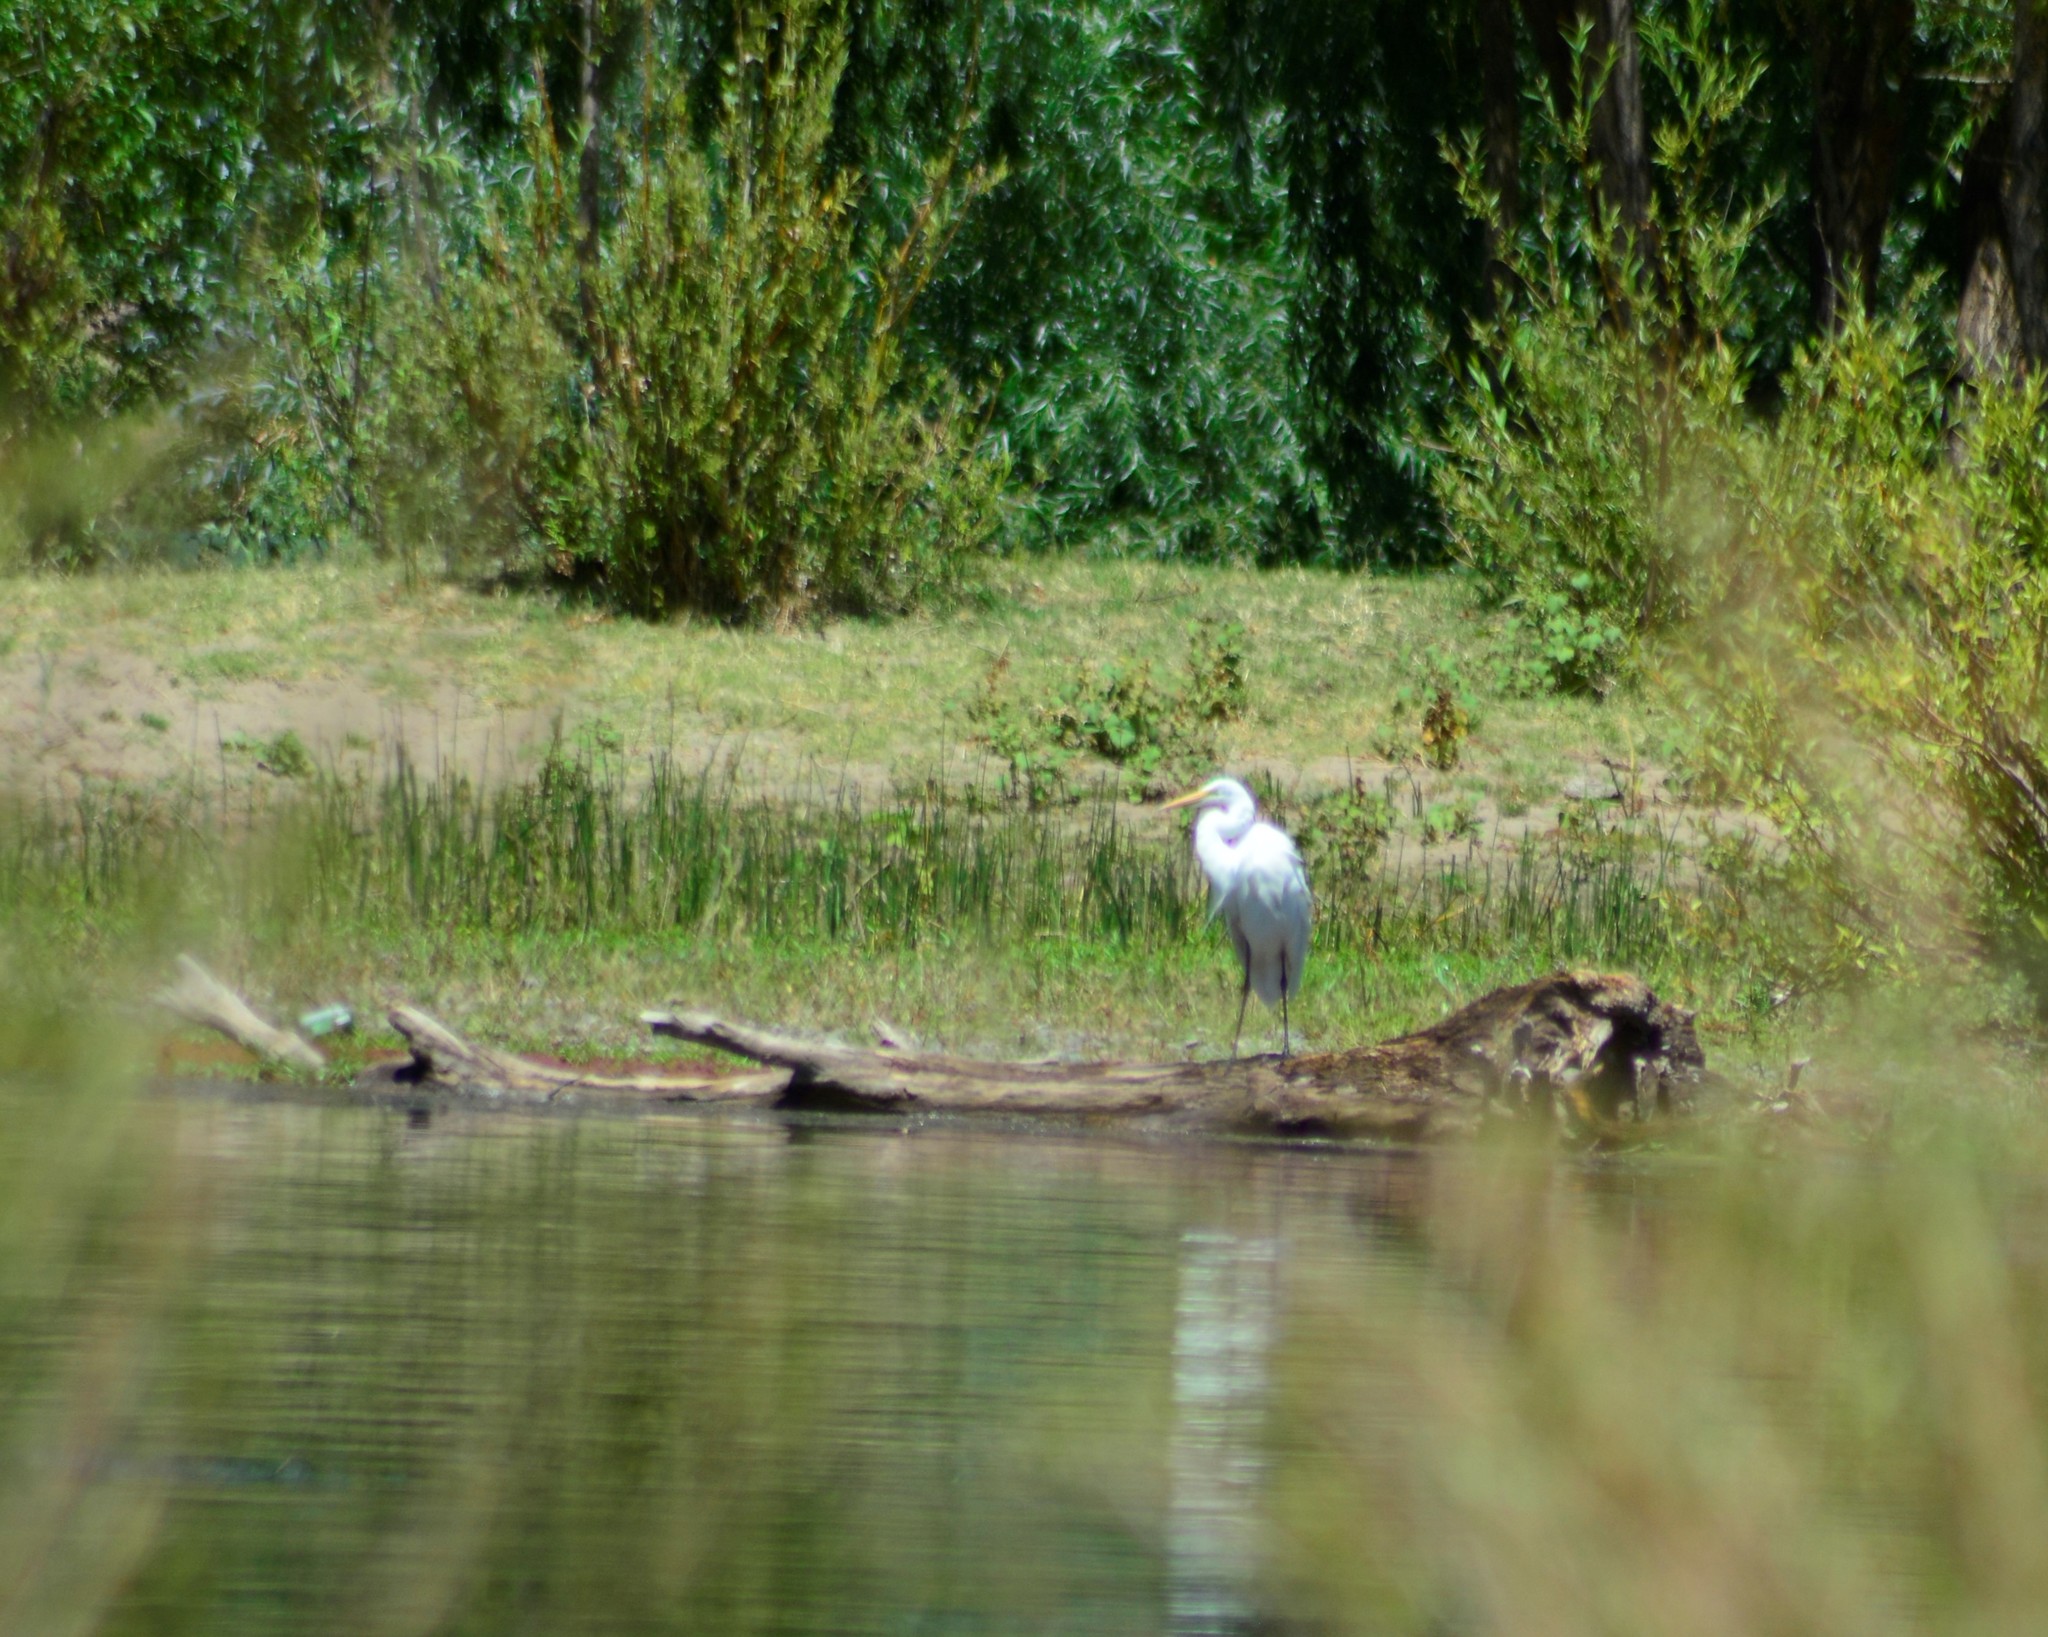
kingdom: Animalia
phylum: Chordata
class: Aves
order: Pelecaniformes
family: Ardeidae
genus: Ardea
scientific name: Ardea alba
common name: Great egret
